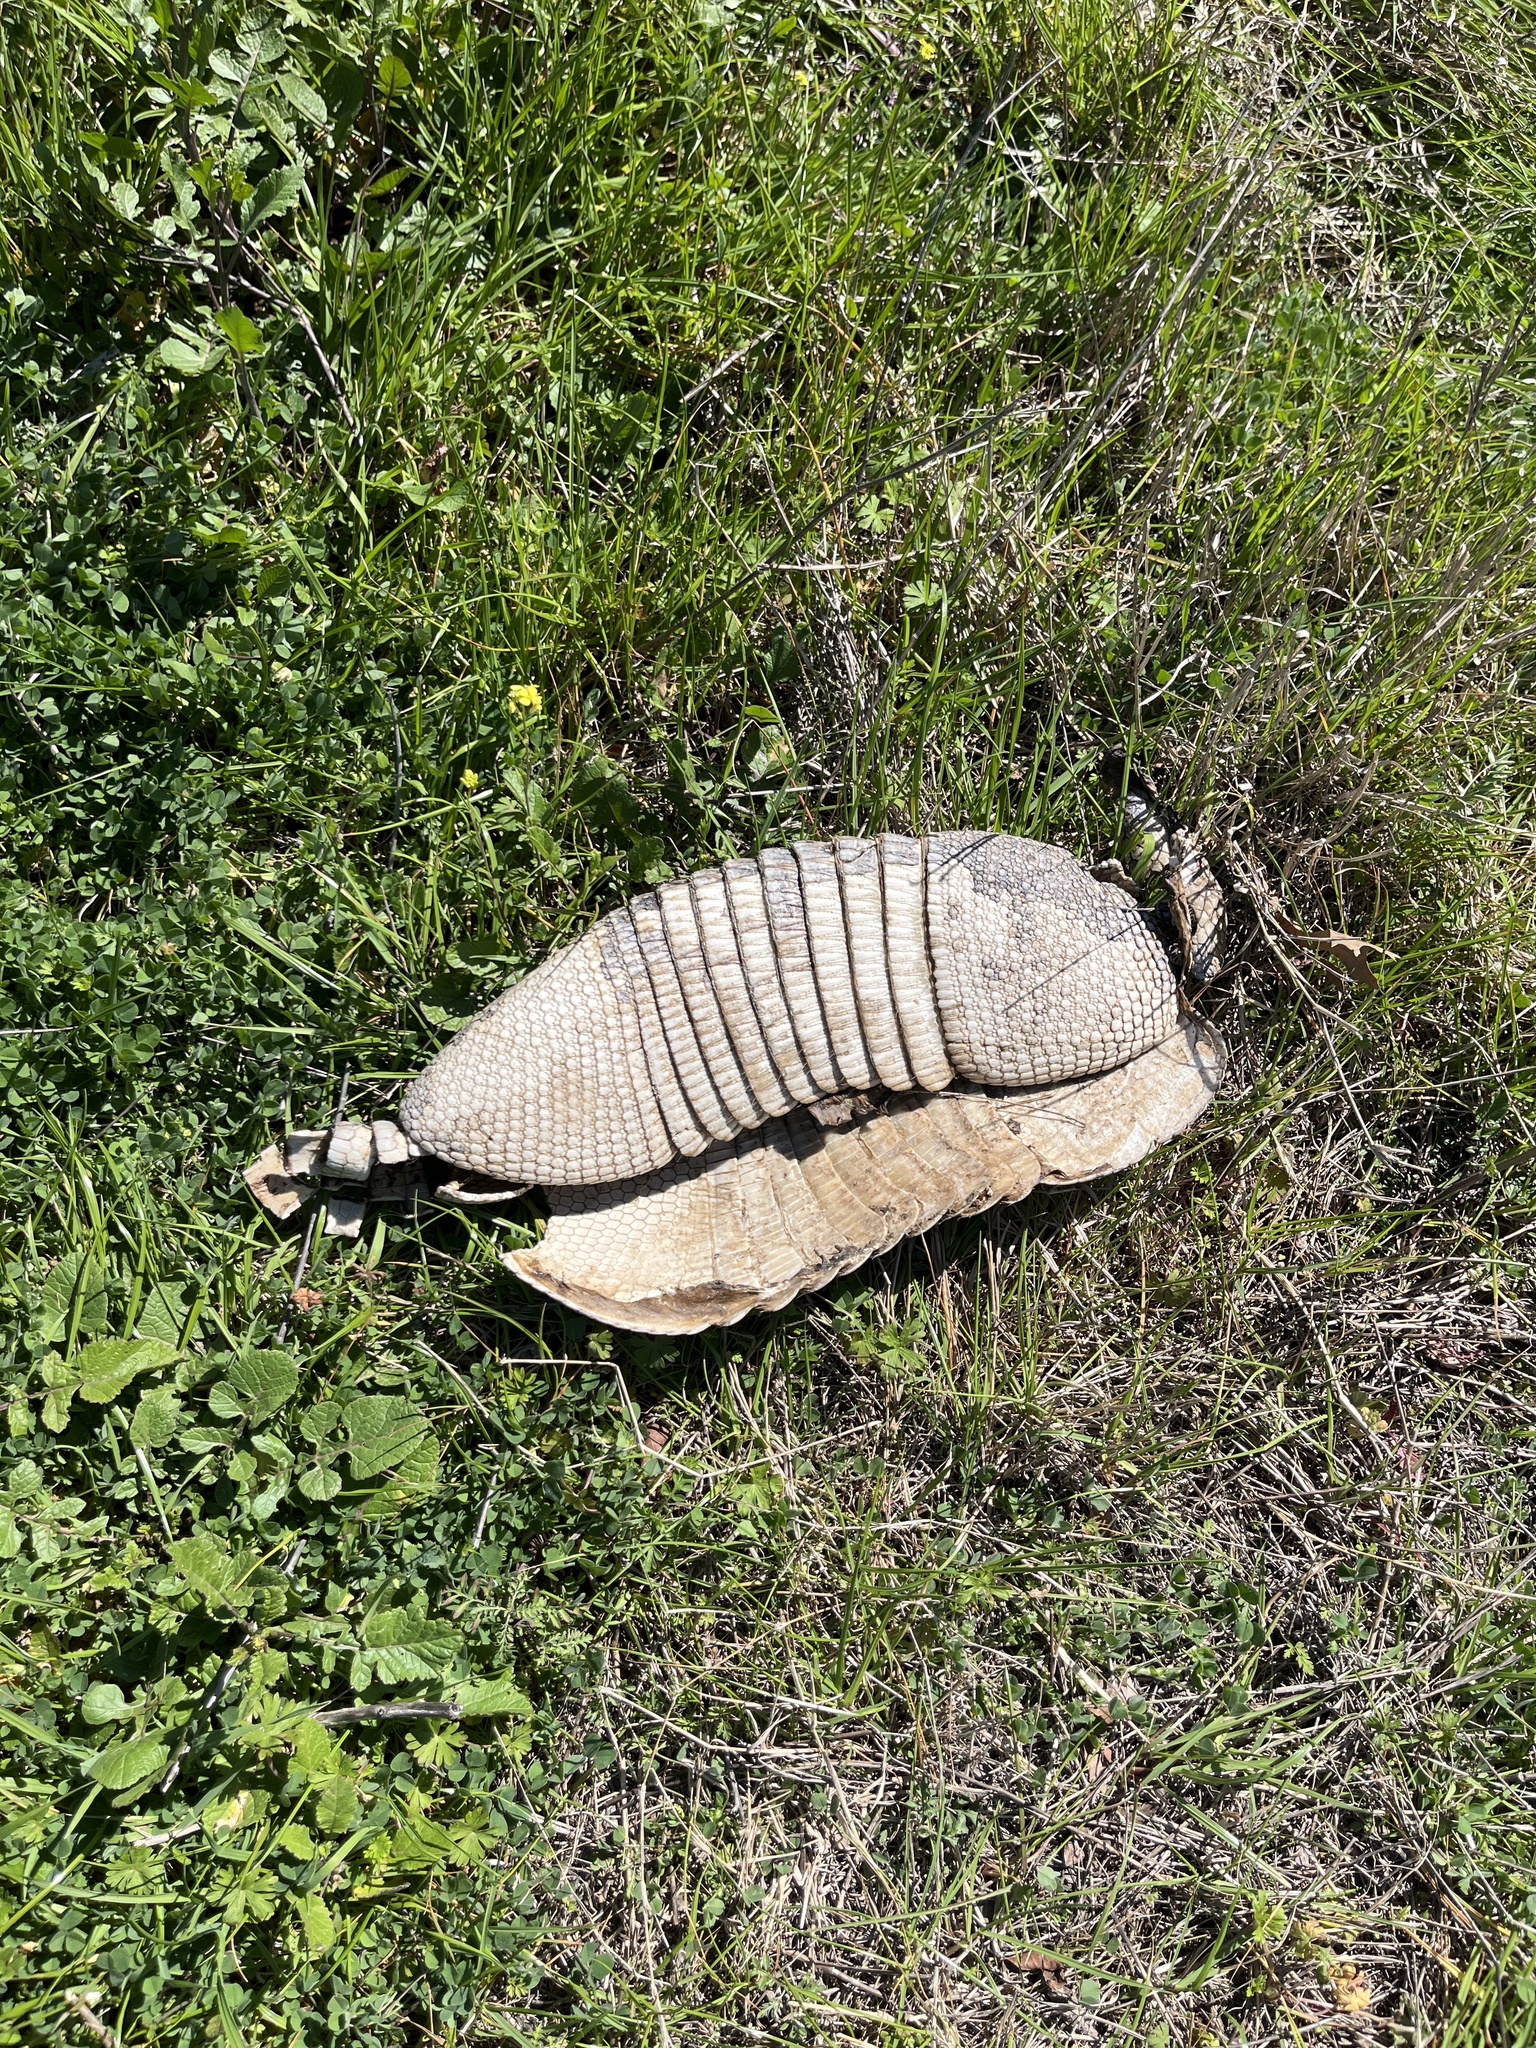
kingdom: Animalia
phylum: Chordata
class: Mammalia
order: Cingulata
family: Dasypodidae
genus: Dasypus
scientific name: Dasypus novemcinctus
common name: Nine-banded armadillo
